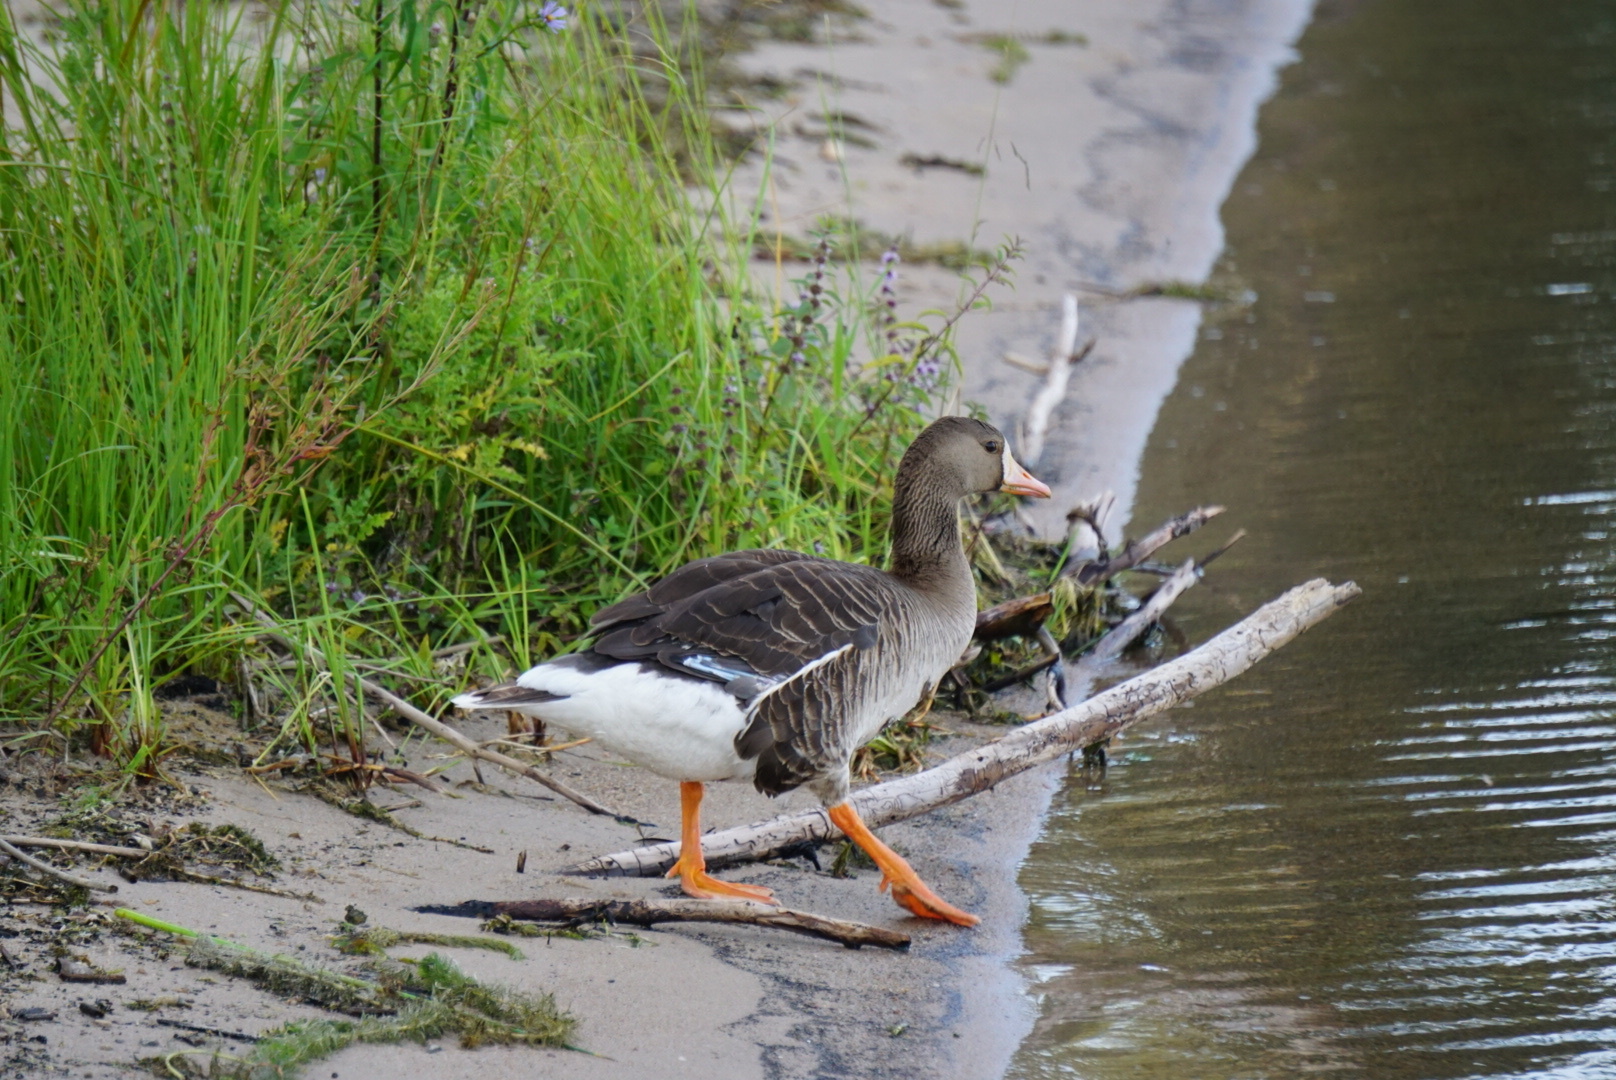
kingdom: Animalia
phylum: Chordata
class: Aves
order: Anseriformes
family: Anatidae
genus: Anser
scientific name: Anser albifrons
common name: Greater white-fronted goose
